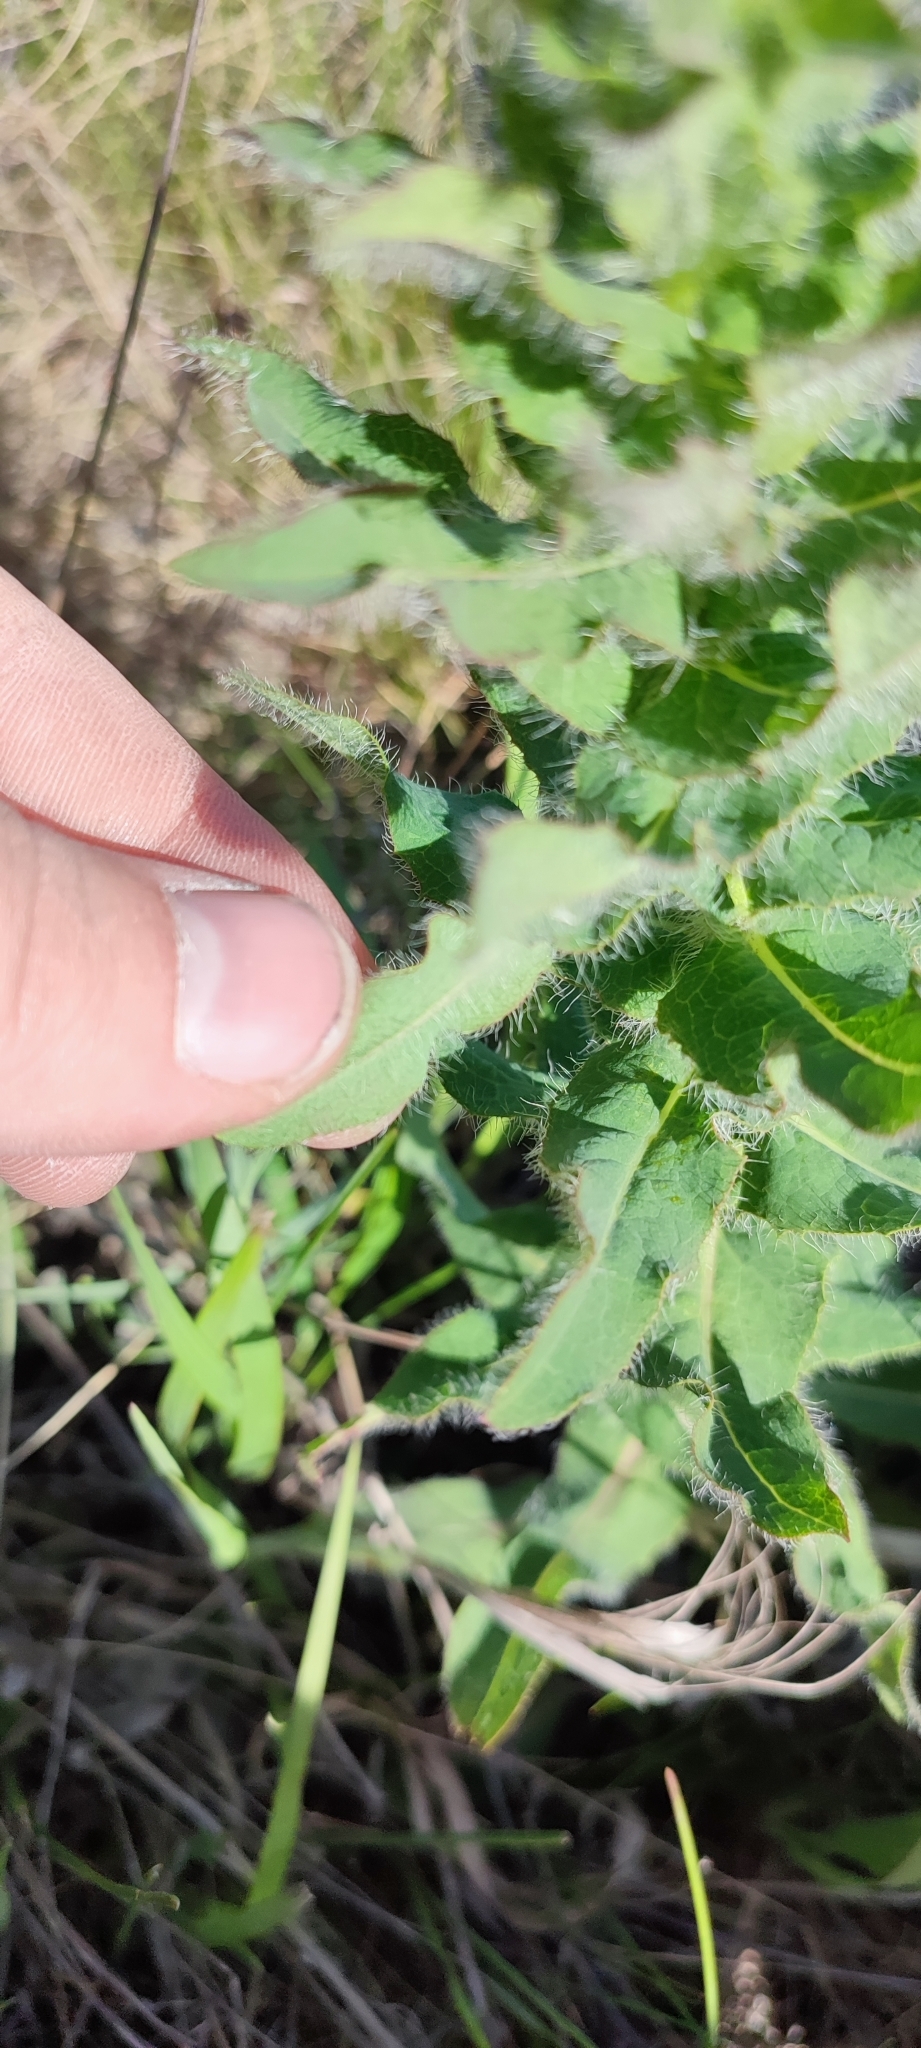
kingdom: Plantae
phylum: Tracheophyta
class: Magnoliopsida
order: Asterales
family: Asteraceae
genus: Hieracium
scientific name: Hieracium robustum
